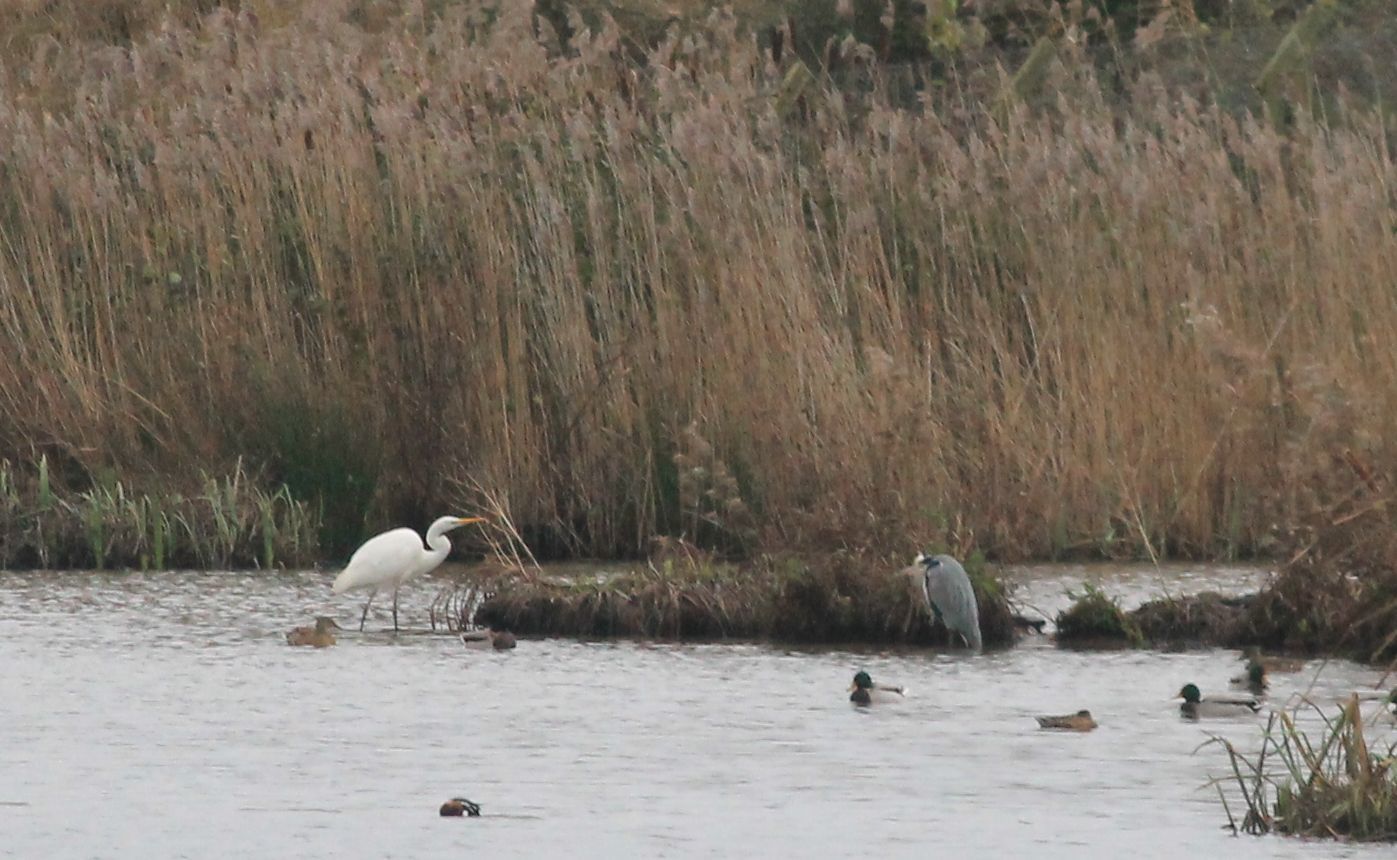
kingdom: Animalia
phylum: Chordata
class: Aves
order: Pelecaniformes
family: Ardeidae
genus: Ardea
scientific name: Ardea alba
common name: Great egret
